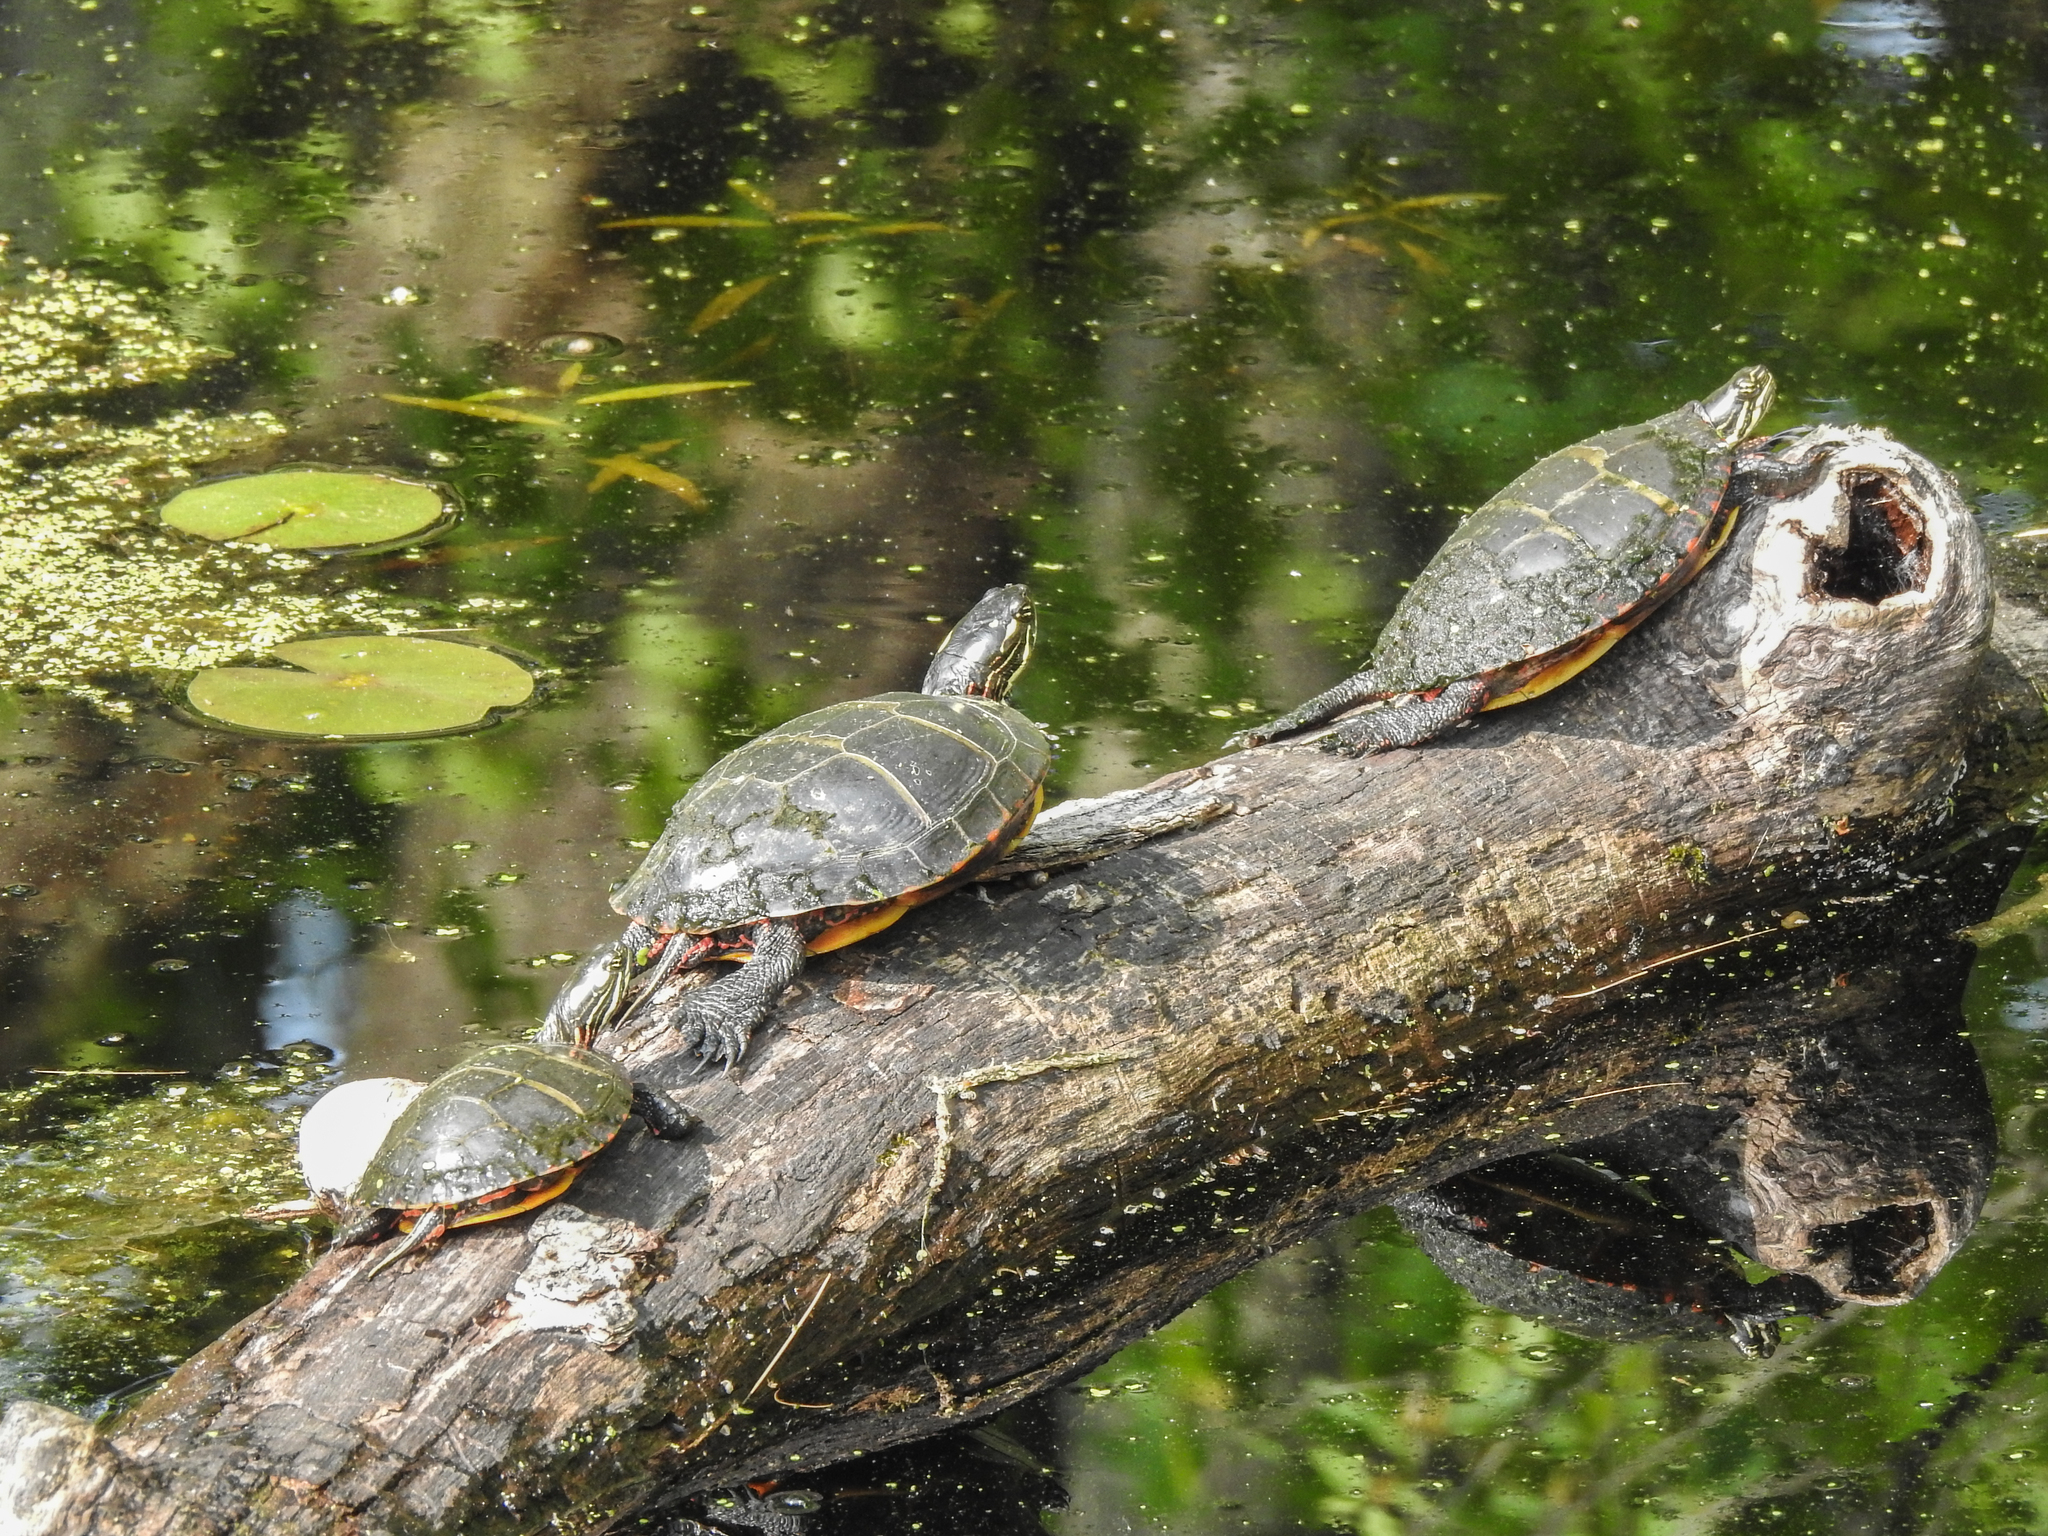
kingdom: Animalia
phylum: Chordata
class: Testudines
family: Emydidae
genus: Chrysemys
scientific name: Chrysemys picta
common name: Painted turtle
